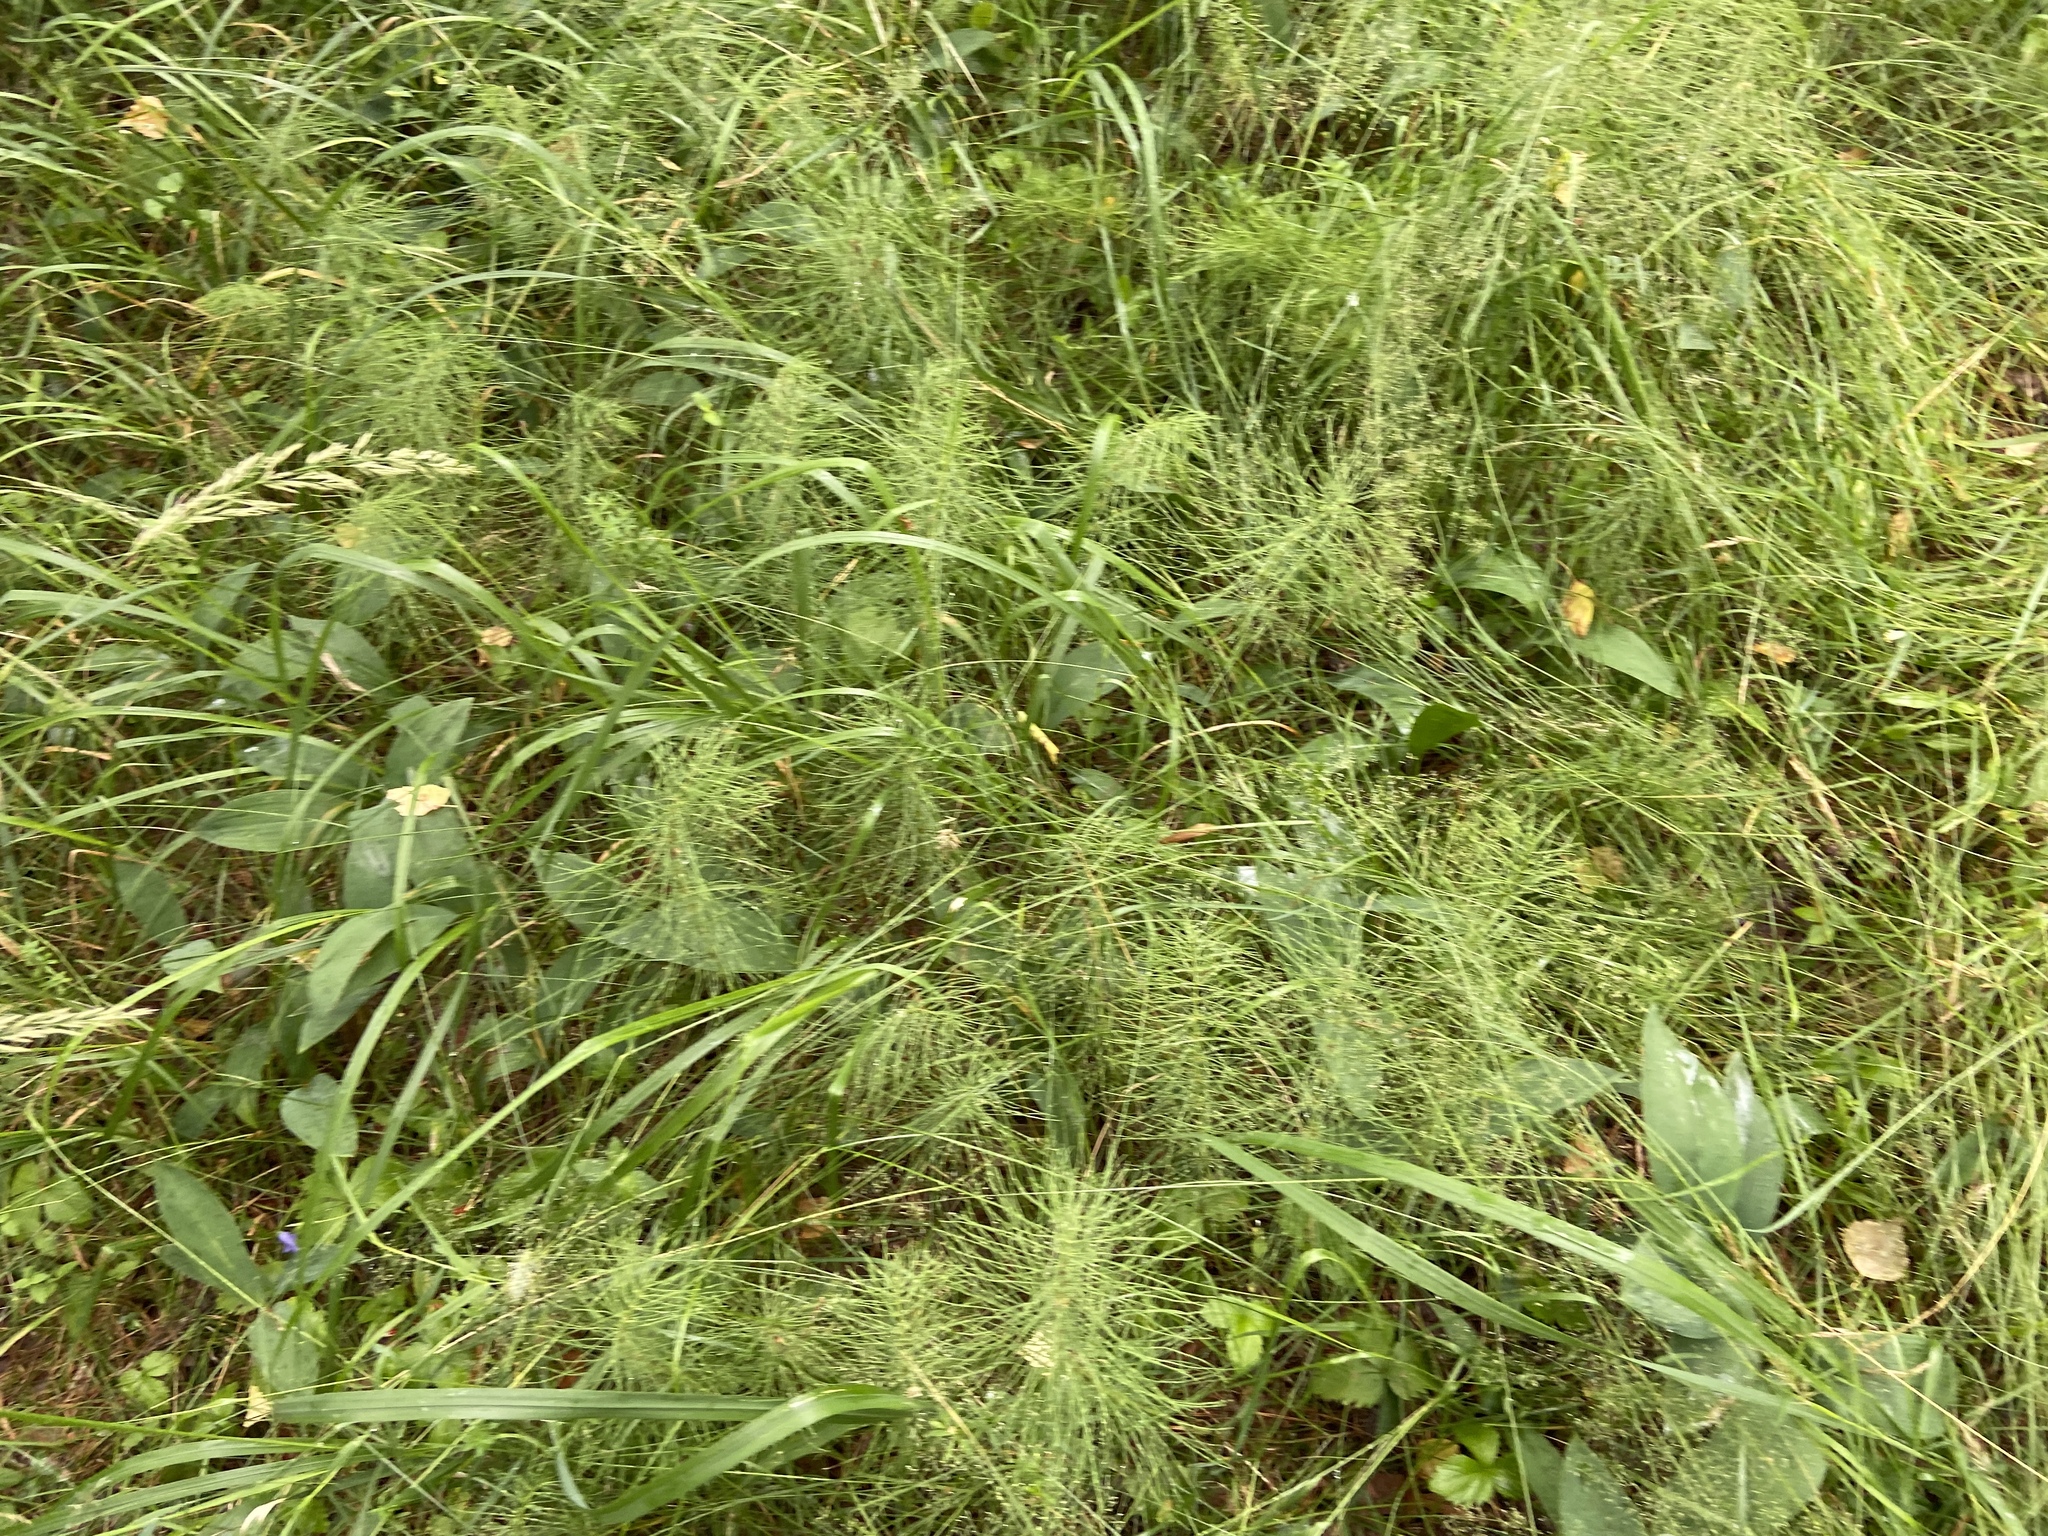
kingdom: Plantae
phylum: Tracheophyta
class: Polypodiopsida
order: Equisetales
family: Equisetaceae
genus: Equisetum
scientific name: Equisetum pratense
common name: Meadow horsetail
